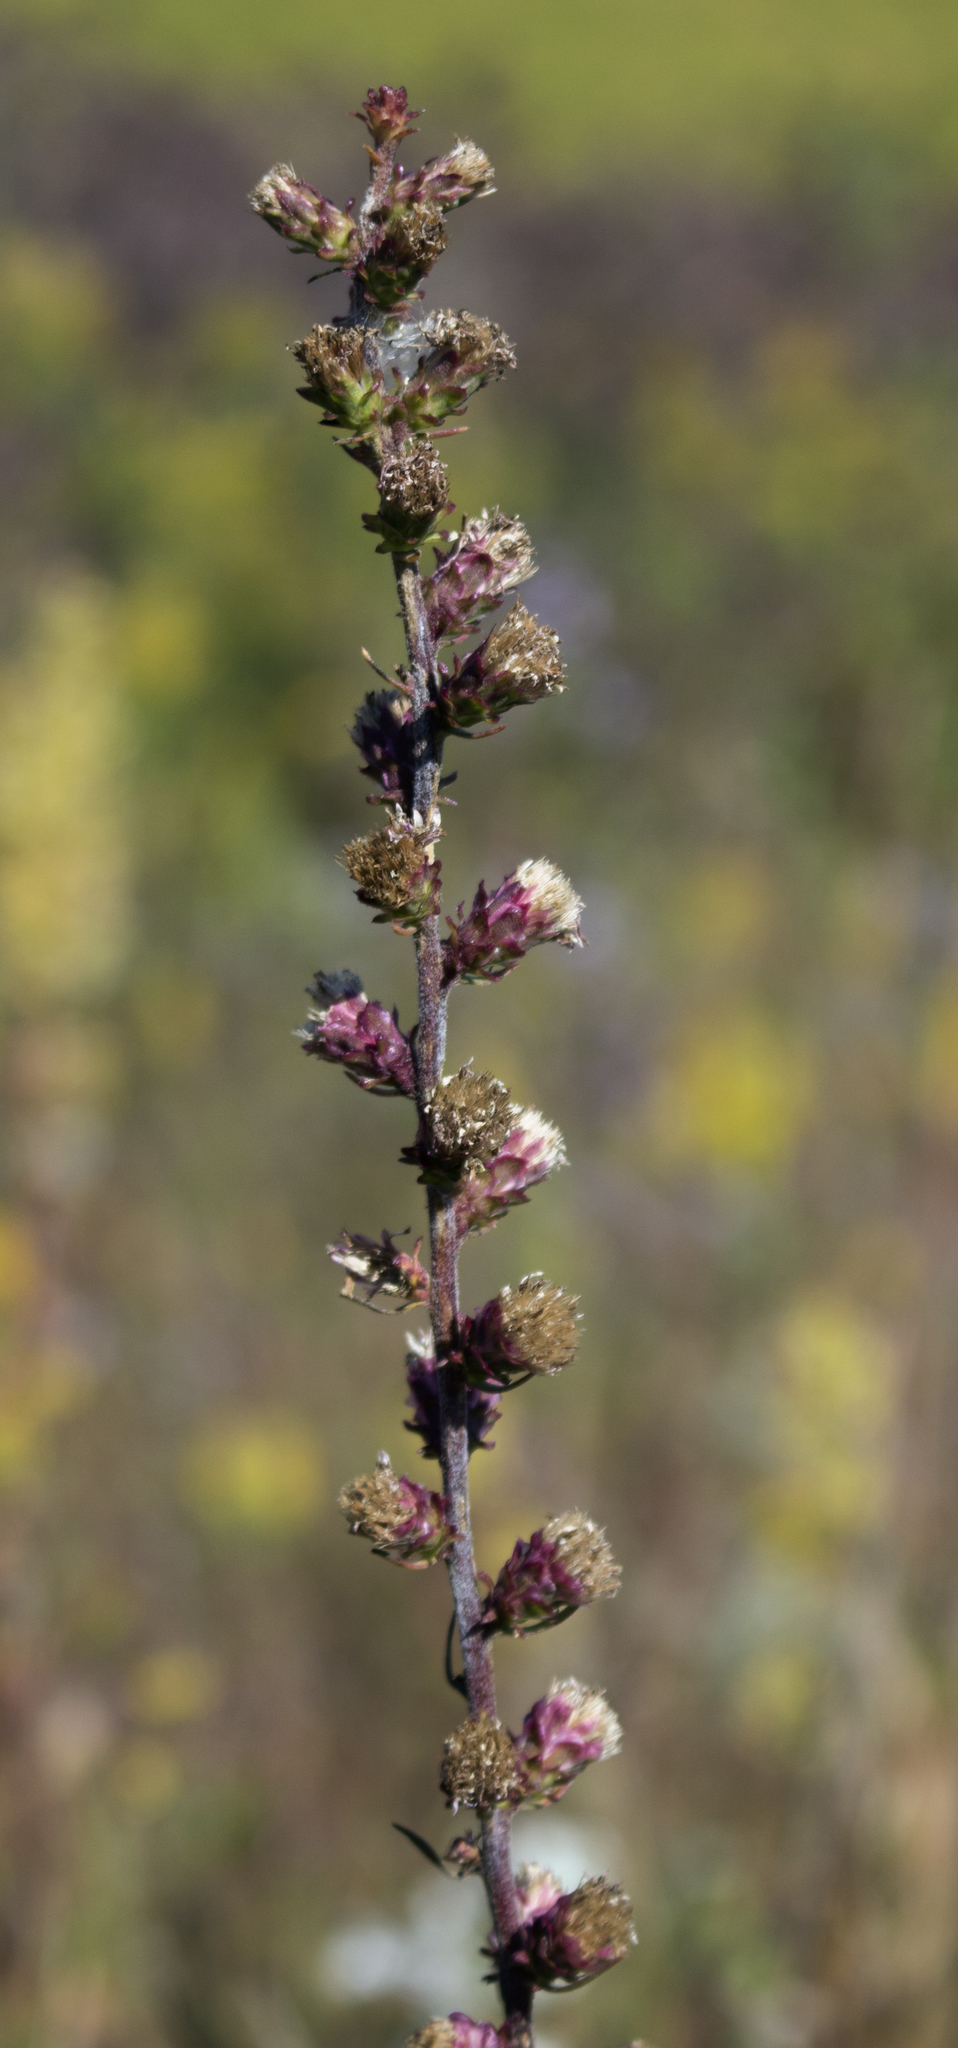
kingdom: Plantae
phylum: Tracheophyta
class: Magnoliopsida
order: Asterales
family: Asteraceae
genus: Liatris
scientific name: Liatris aspera
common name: Lacerate blazing-star
